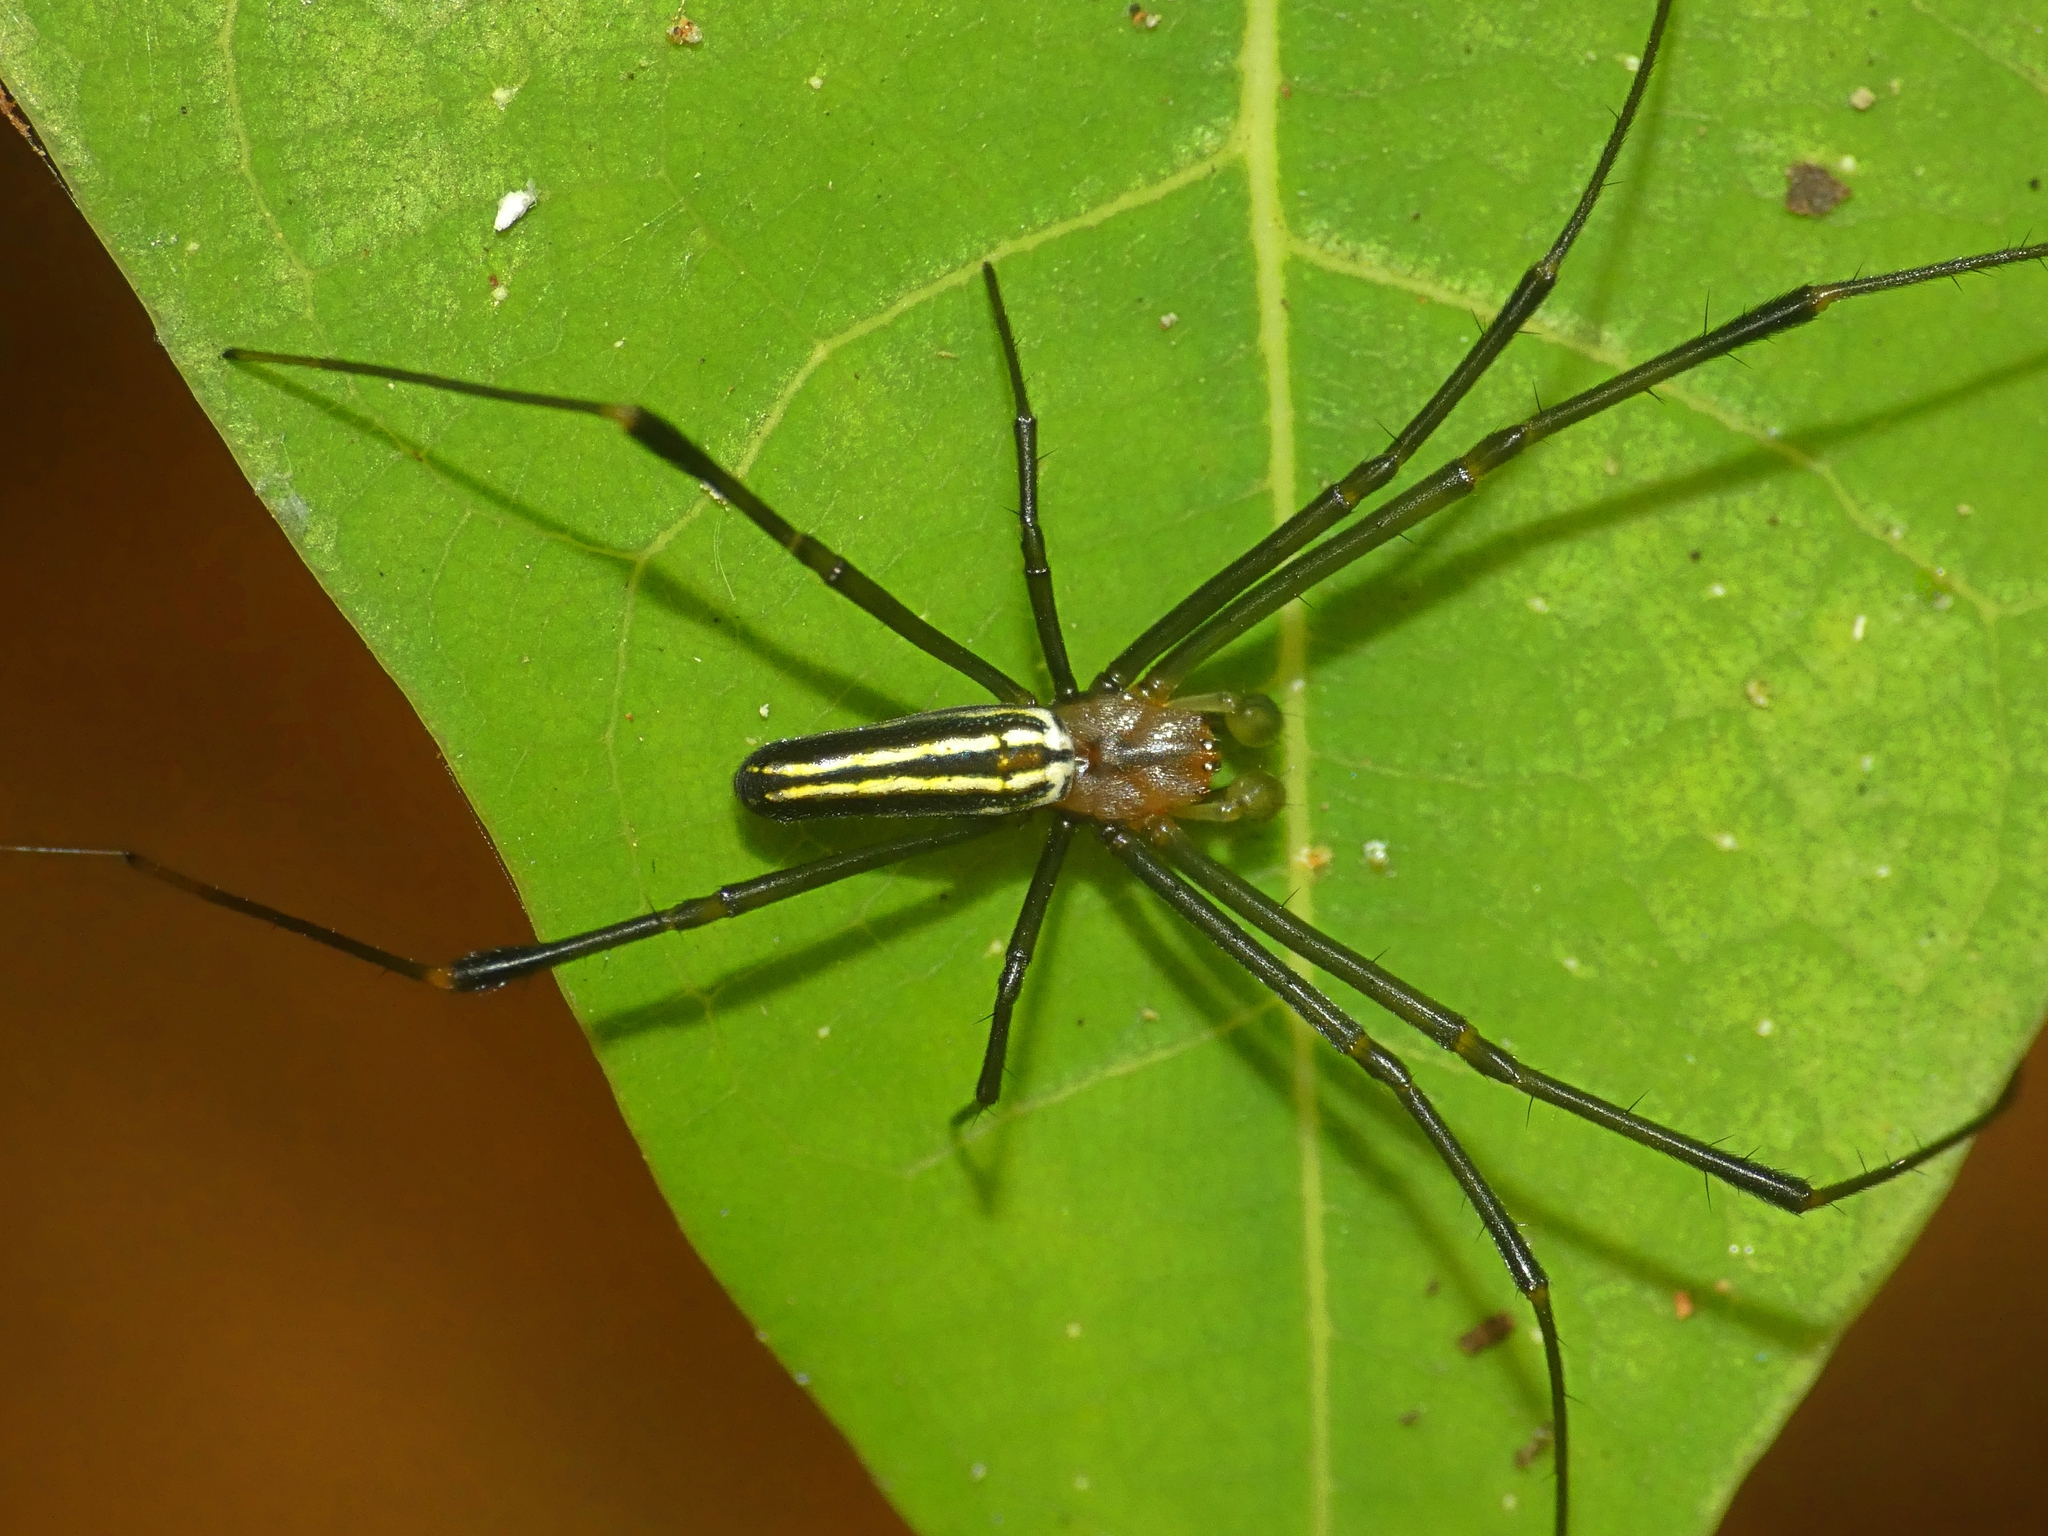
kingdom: Animalia
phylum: Arthropoda
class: Arachnida
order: Araneae
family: Araneidae
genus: Nephila
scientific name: Nephila pilipes
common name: Giant golden orb weaver
